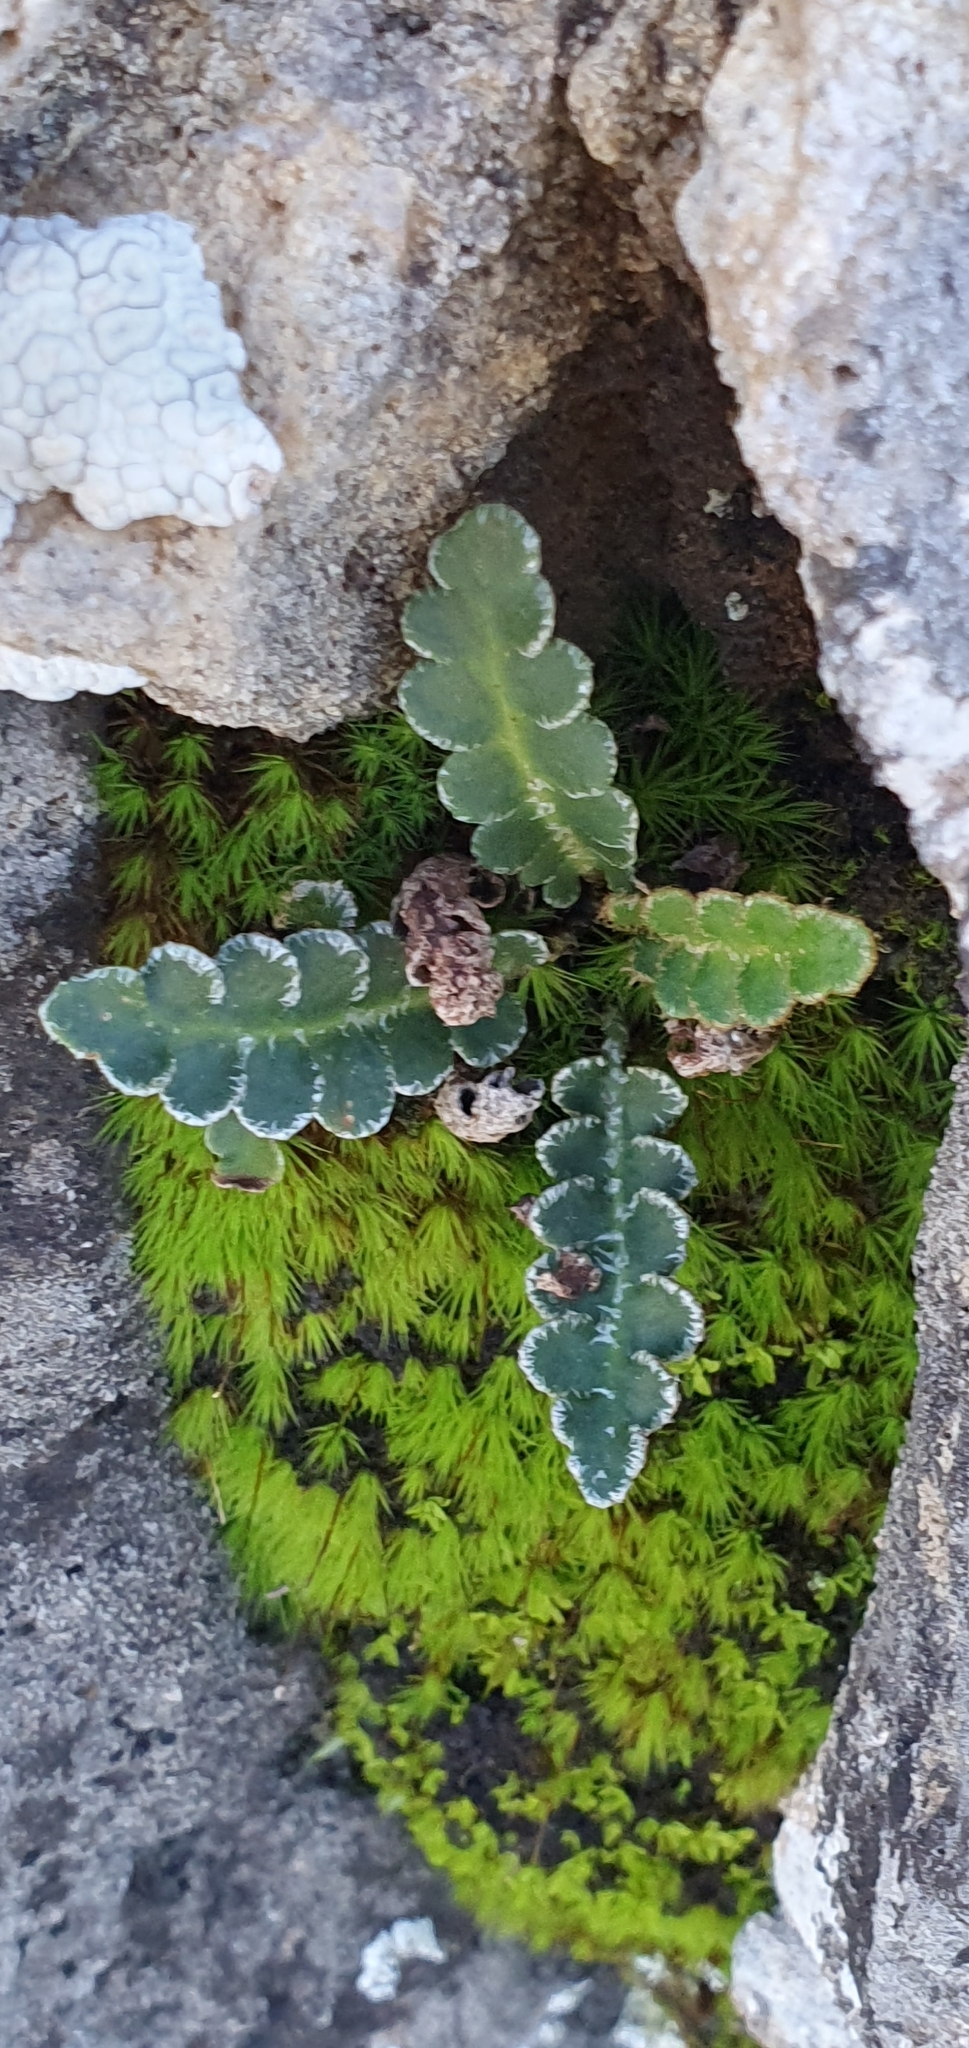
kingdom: Plantae
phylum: Tracheophyta
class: Polypodiopsida
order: Polypodiales
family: Aspleniaceae
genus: Asplenium
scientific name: Asplenium ceterach
